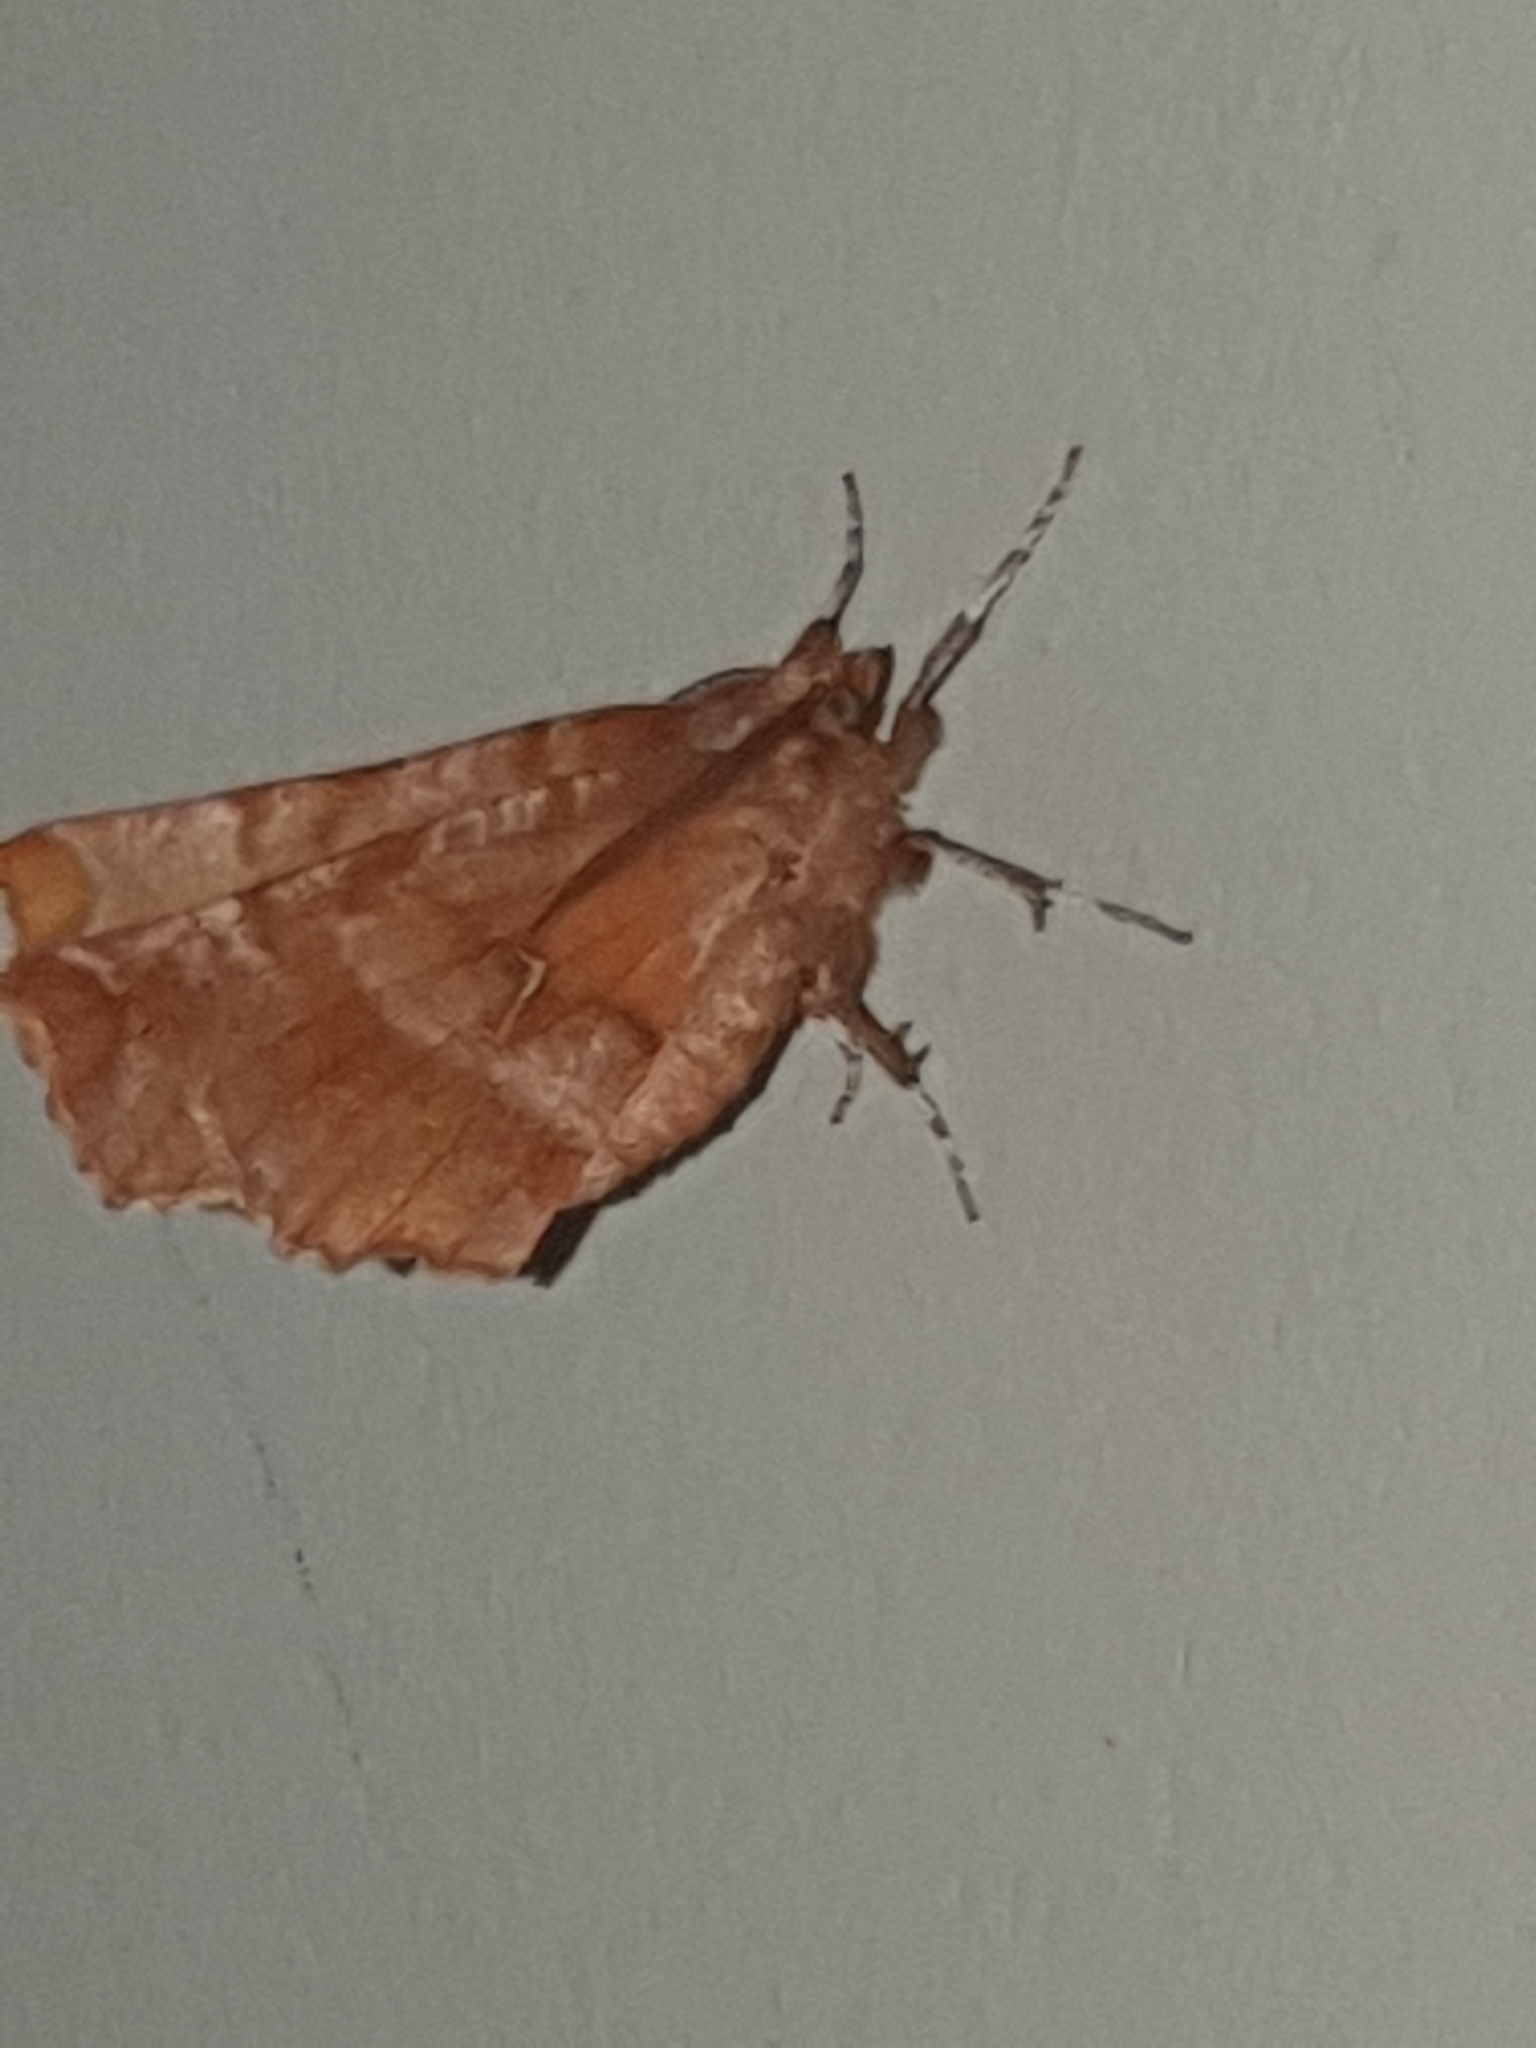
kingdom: Animalia
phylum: Arthropoda
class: Insecta
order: Lepidoptera
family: Geometridae
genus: Selenia
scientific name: Selenia dentaria
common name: Early thorn
